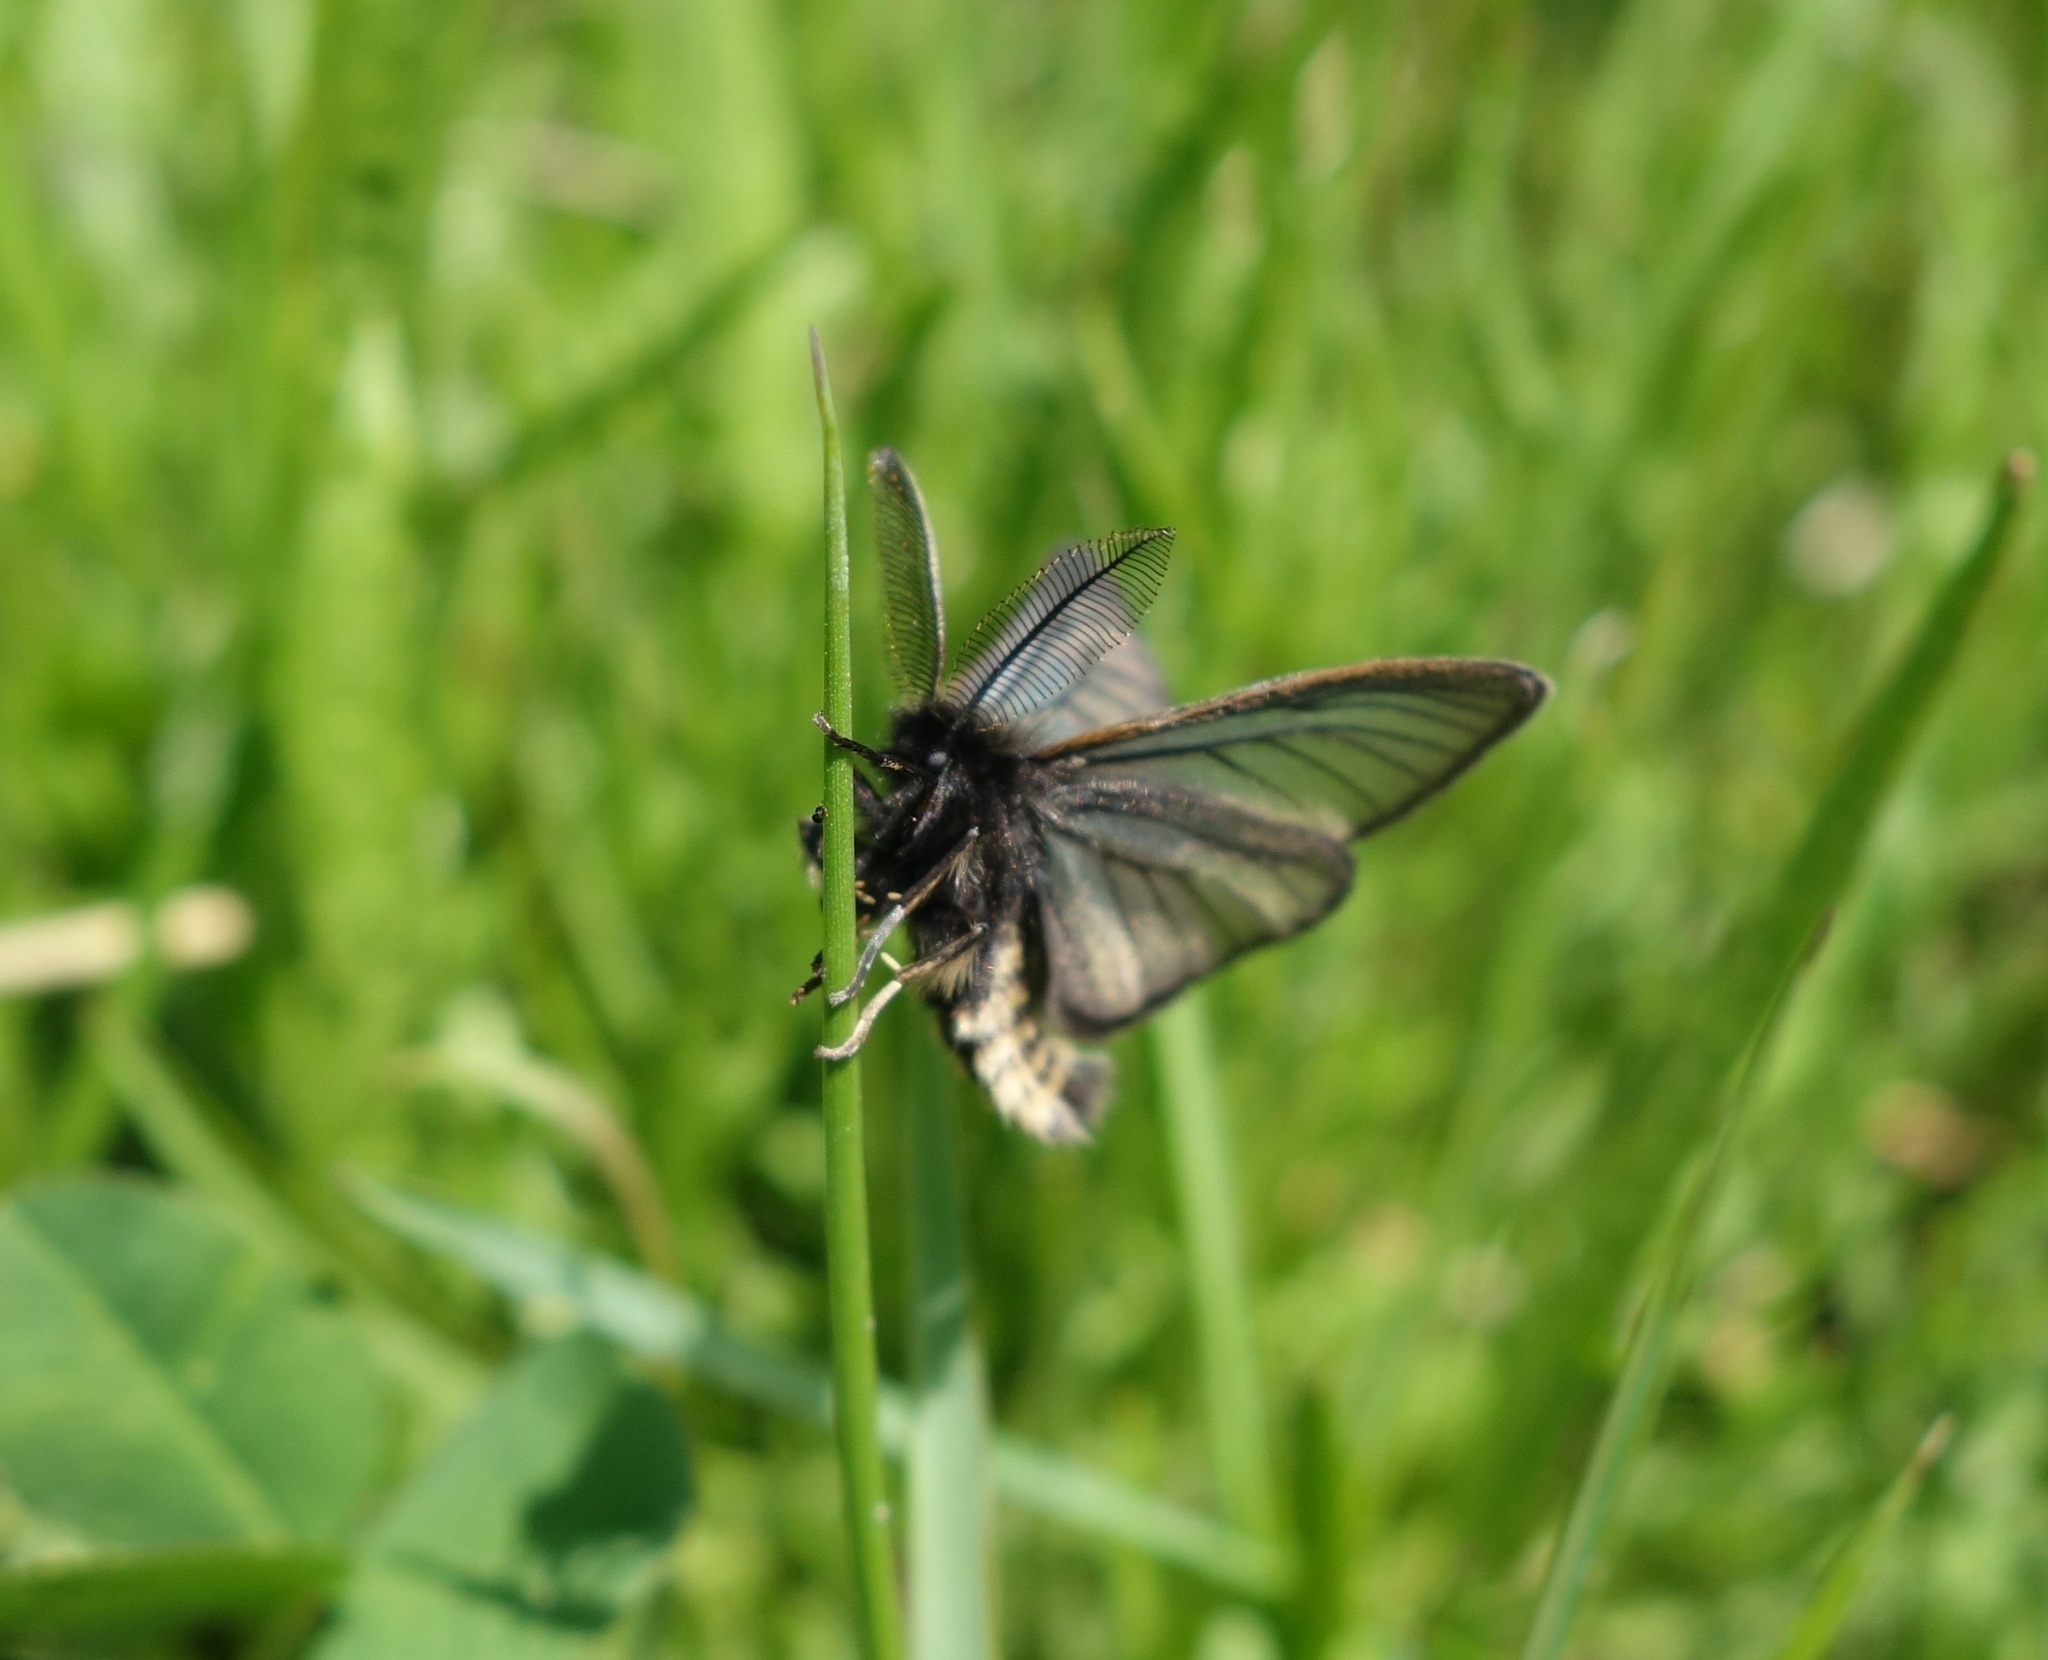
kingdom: Animalia
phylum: Arthropoda
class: Insecta
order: Lepidoptera
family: Erebidae
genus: Penthophera
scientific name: Penthophera morio
